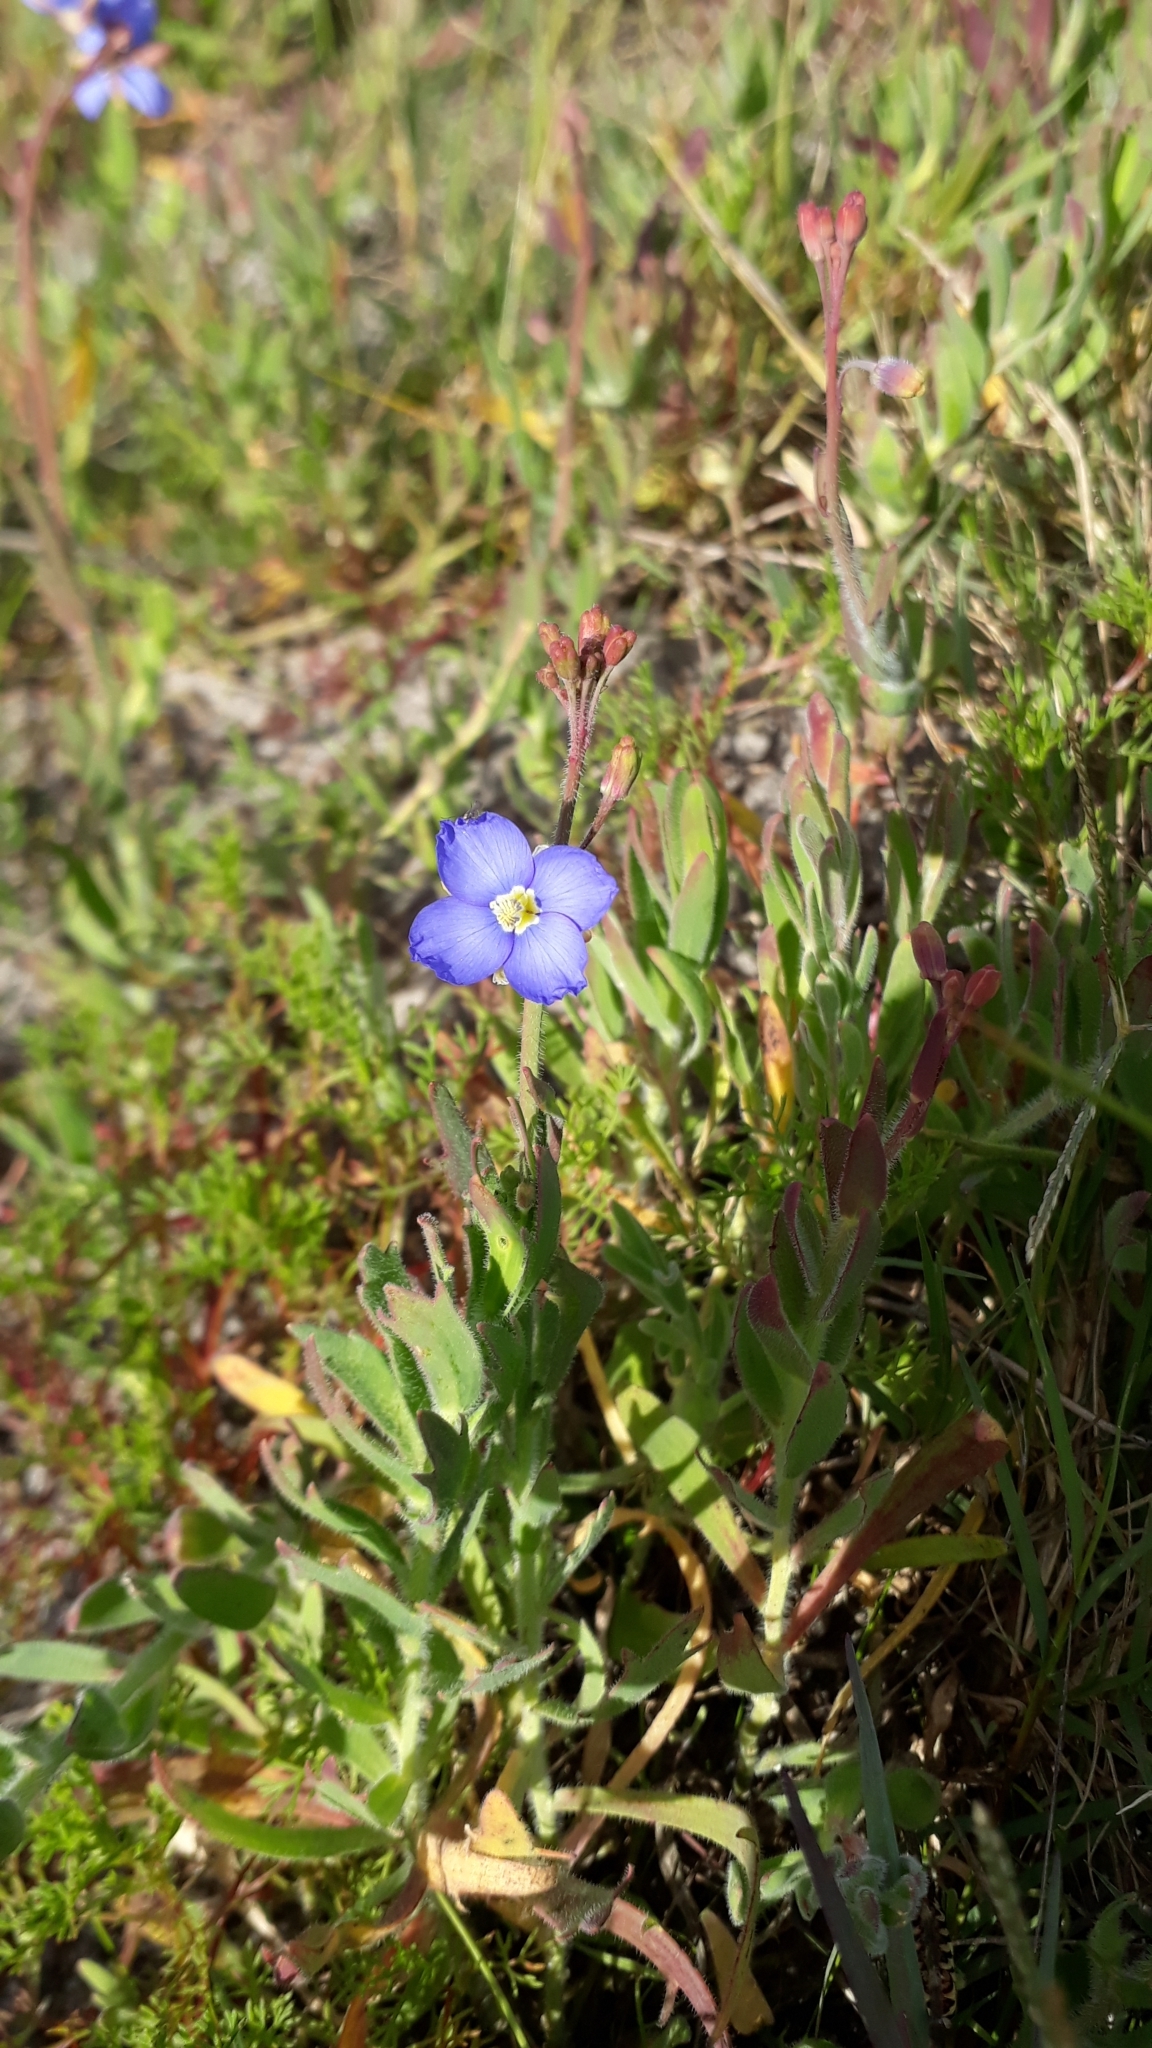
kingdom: Plantae
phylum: Tracheophyta
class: Magnoliopsida
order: Brassicales
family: Brassicaceae
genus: Heliophila
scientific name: Heliophila africana
